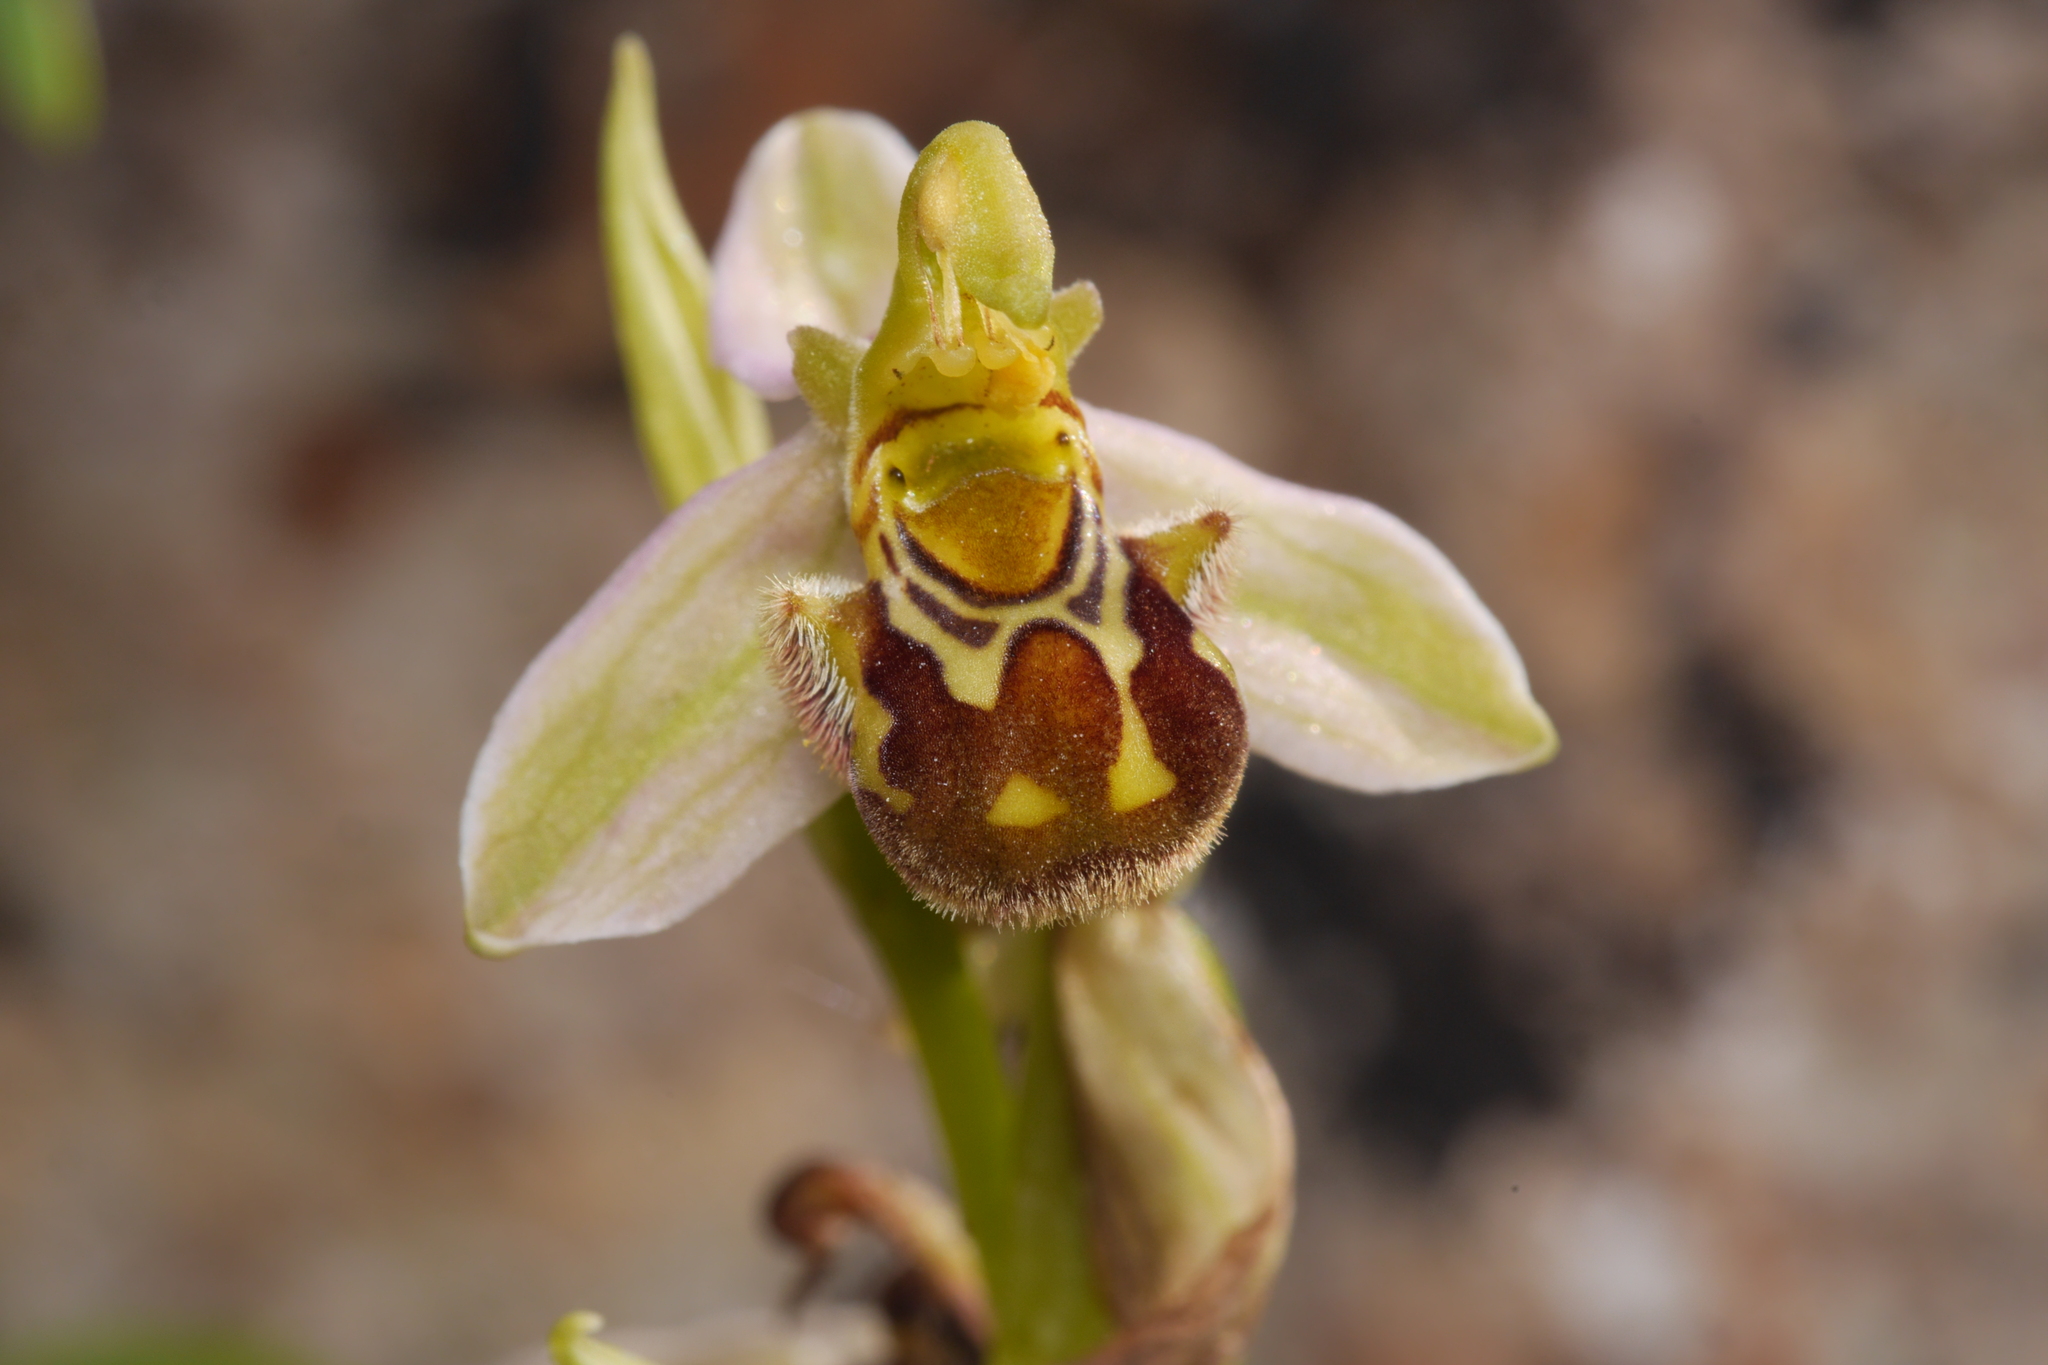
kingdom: Plantae
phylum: Tracheophyta
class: Liliopsida
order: Asparagales
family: Orchidaceae
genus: Ophrys
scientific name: Ophrys apifera
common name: Bee orchid
